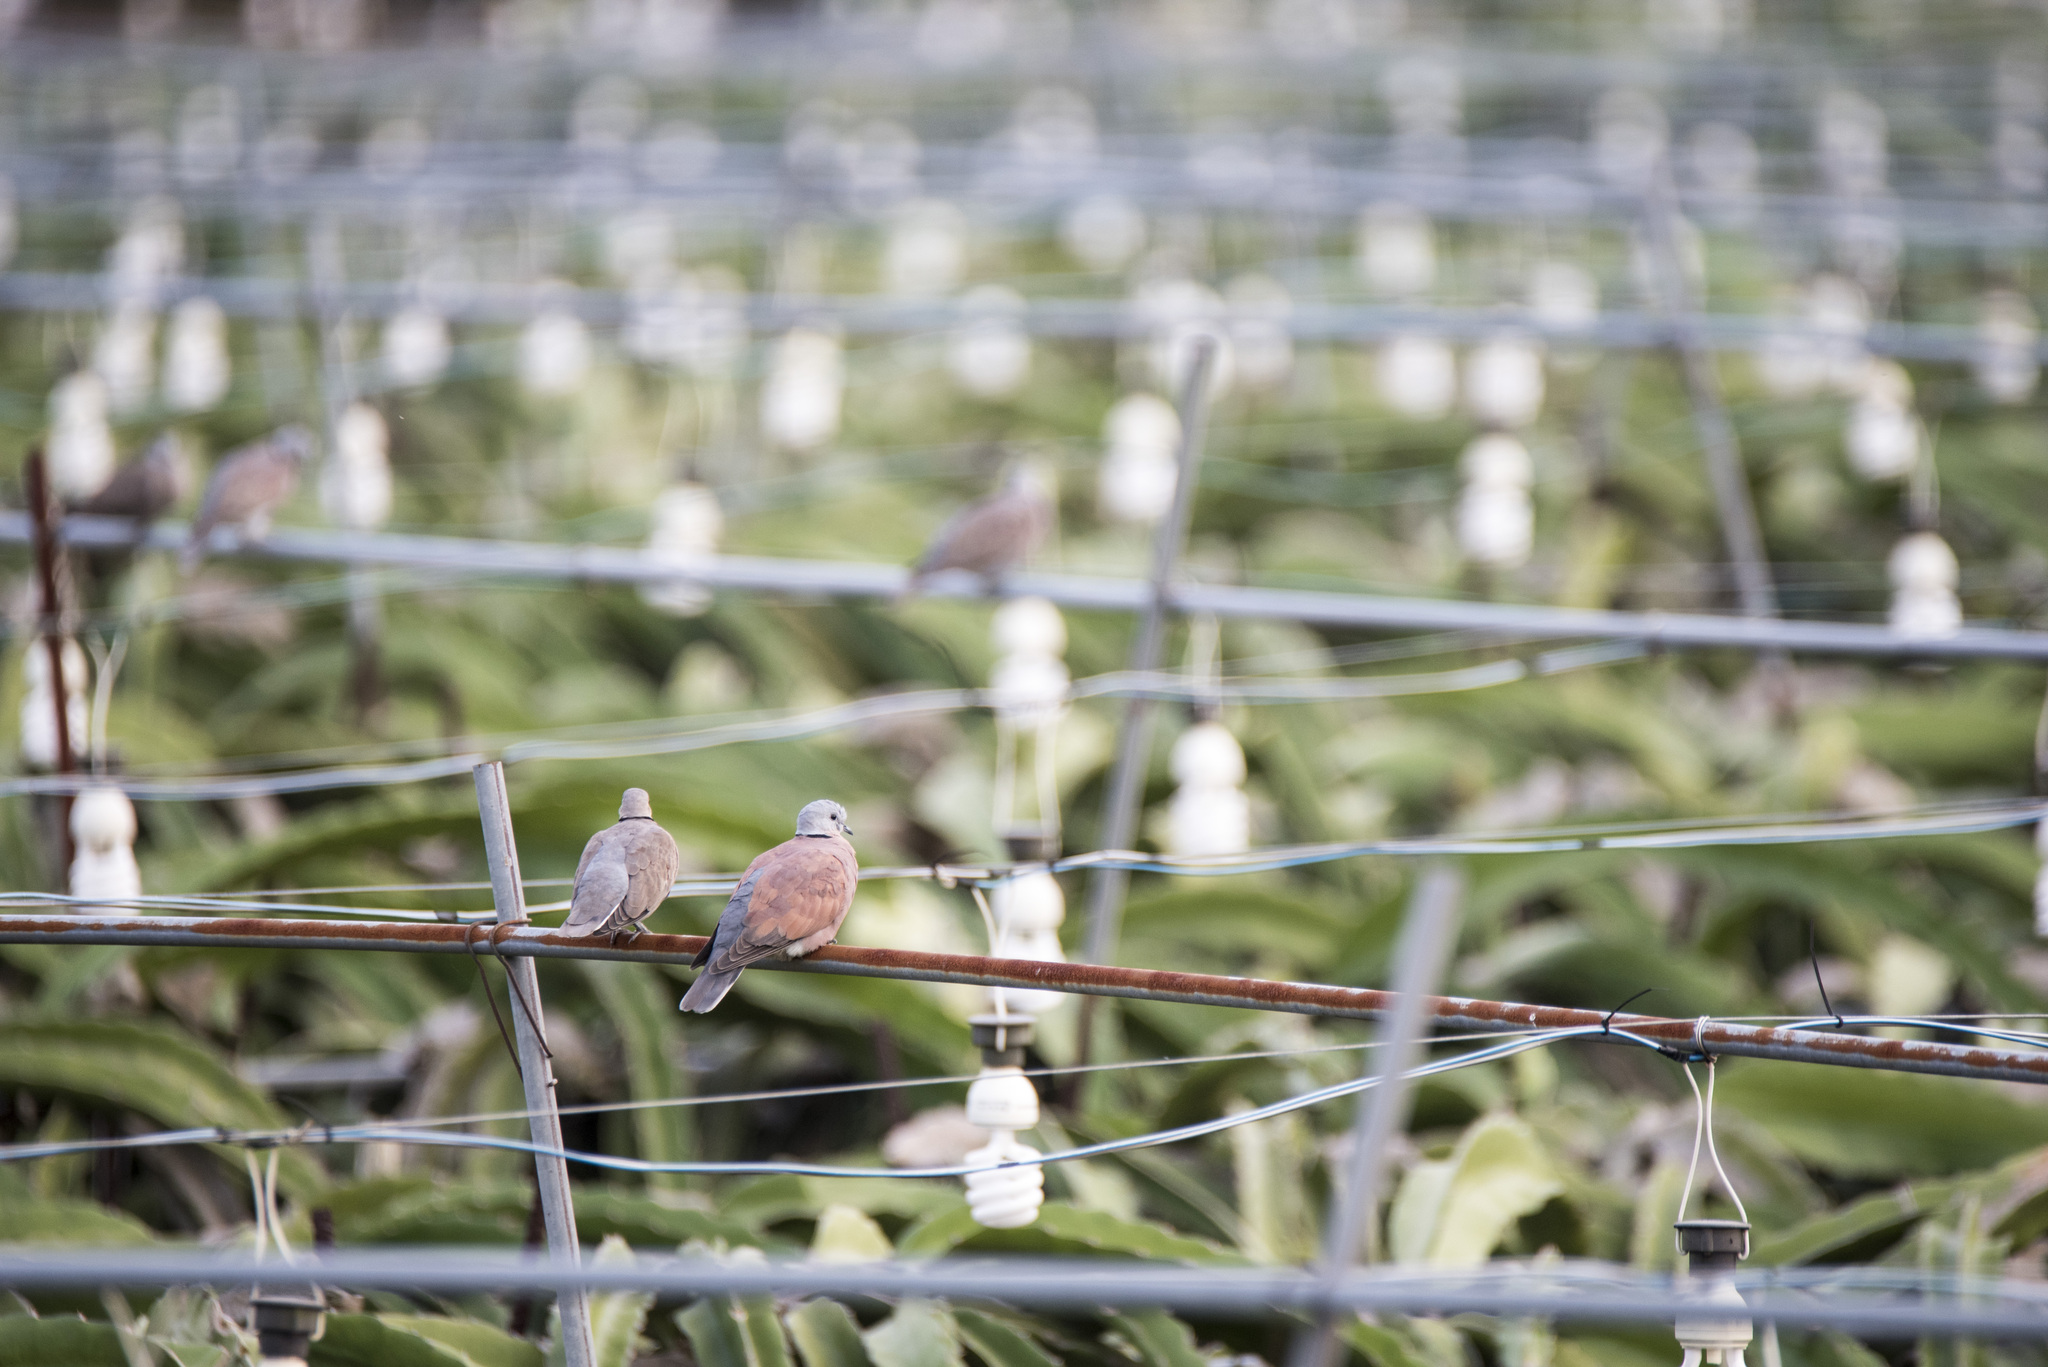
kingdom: Animalia
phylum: Chordata
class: Aves
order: Columbiformes
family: Columbidae
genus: Streptopelia
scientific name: Streptopelia tranquebarica
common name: Red turtle dove
